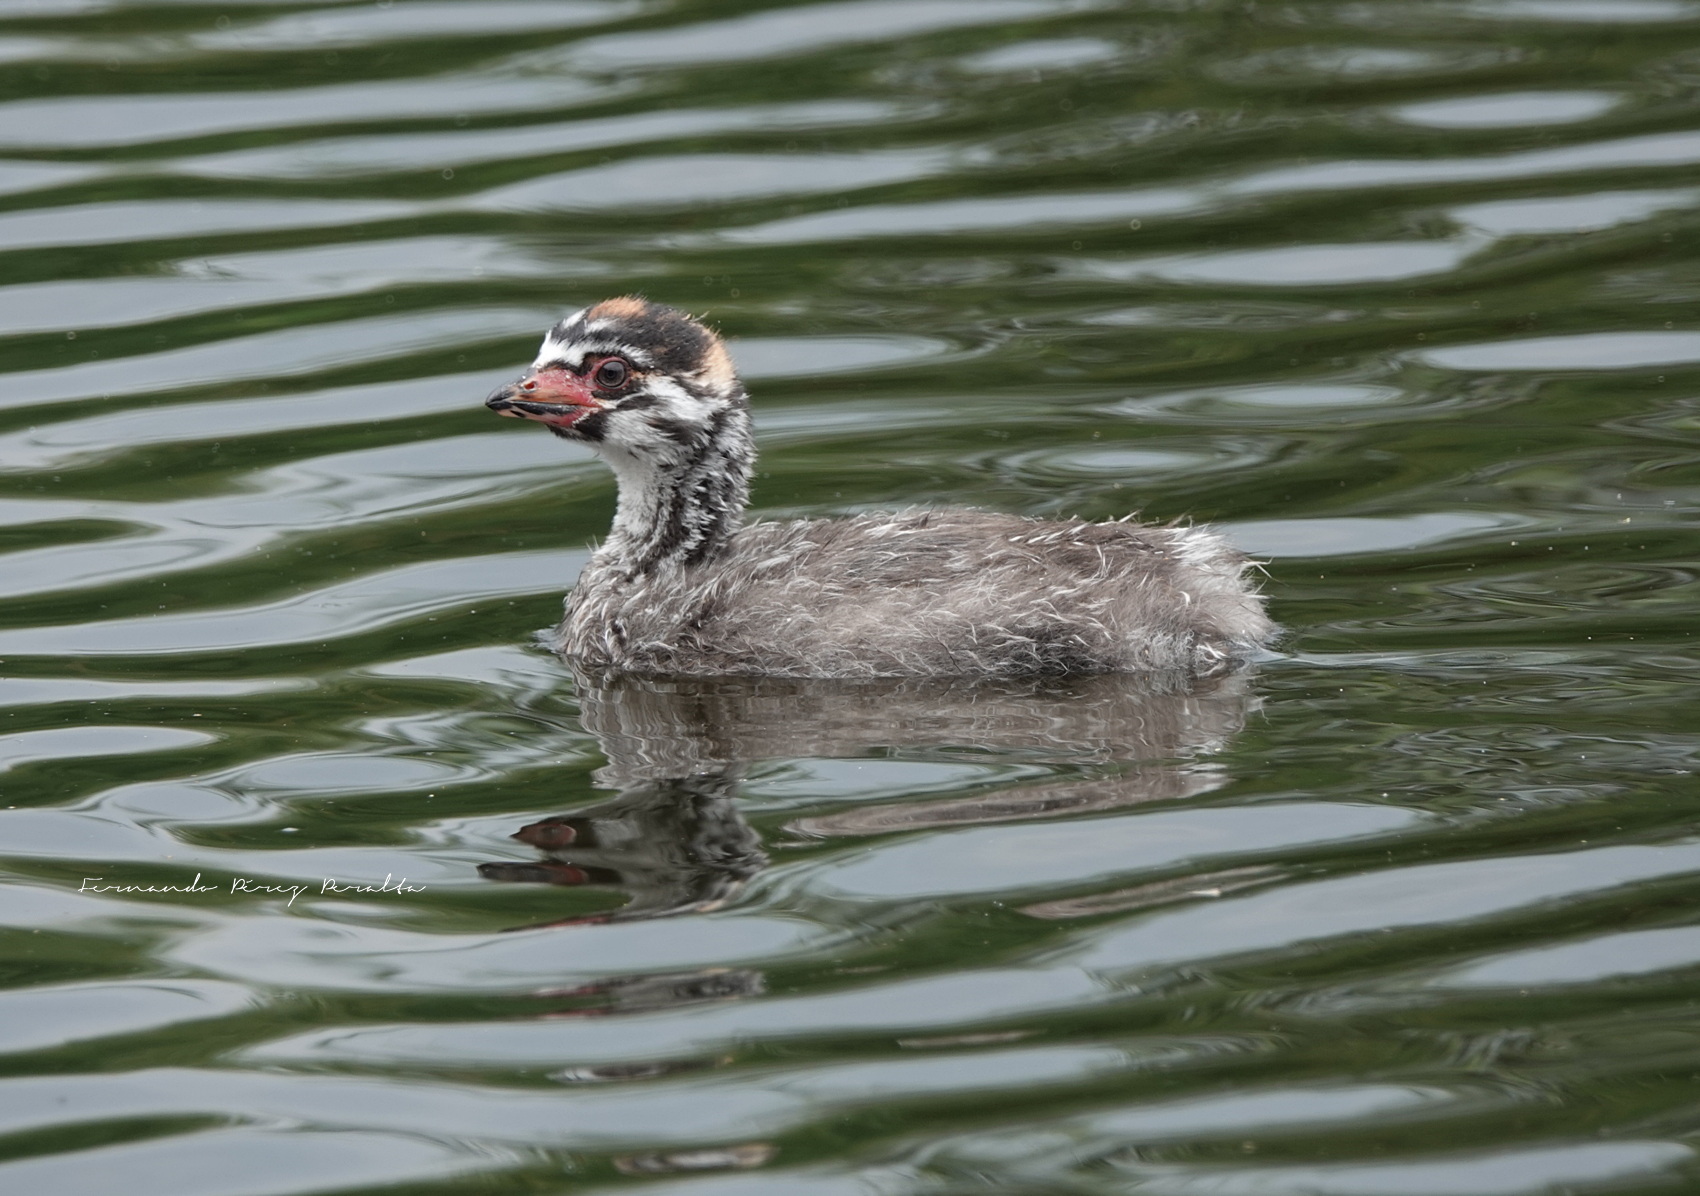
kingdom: Animalia
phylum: Chordata
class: Aves
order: Podicipediformes
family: Podicipedidae
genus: Podilymbus
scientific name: Podilymbus podiceps
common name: Pied-billed grebe
